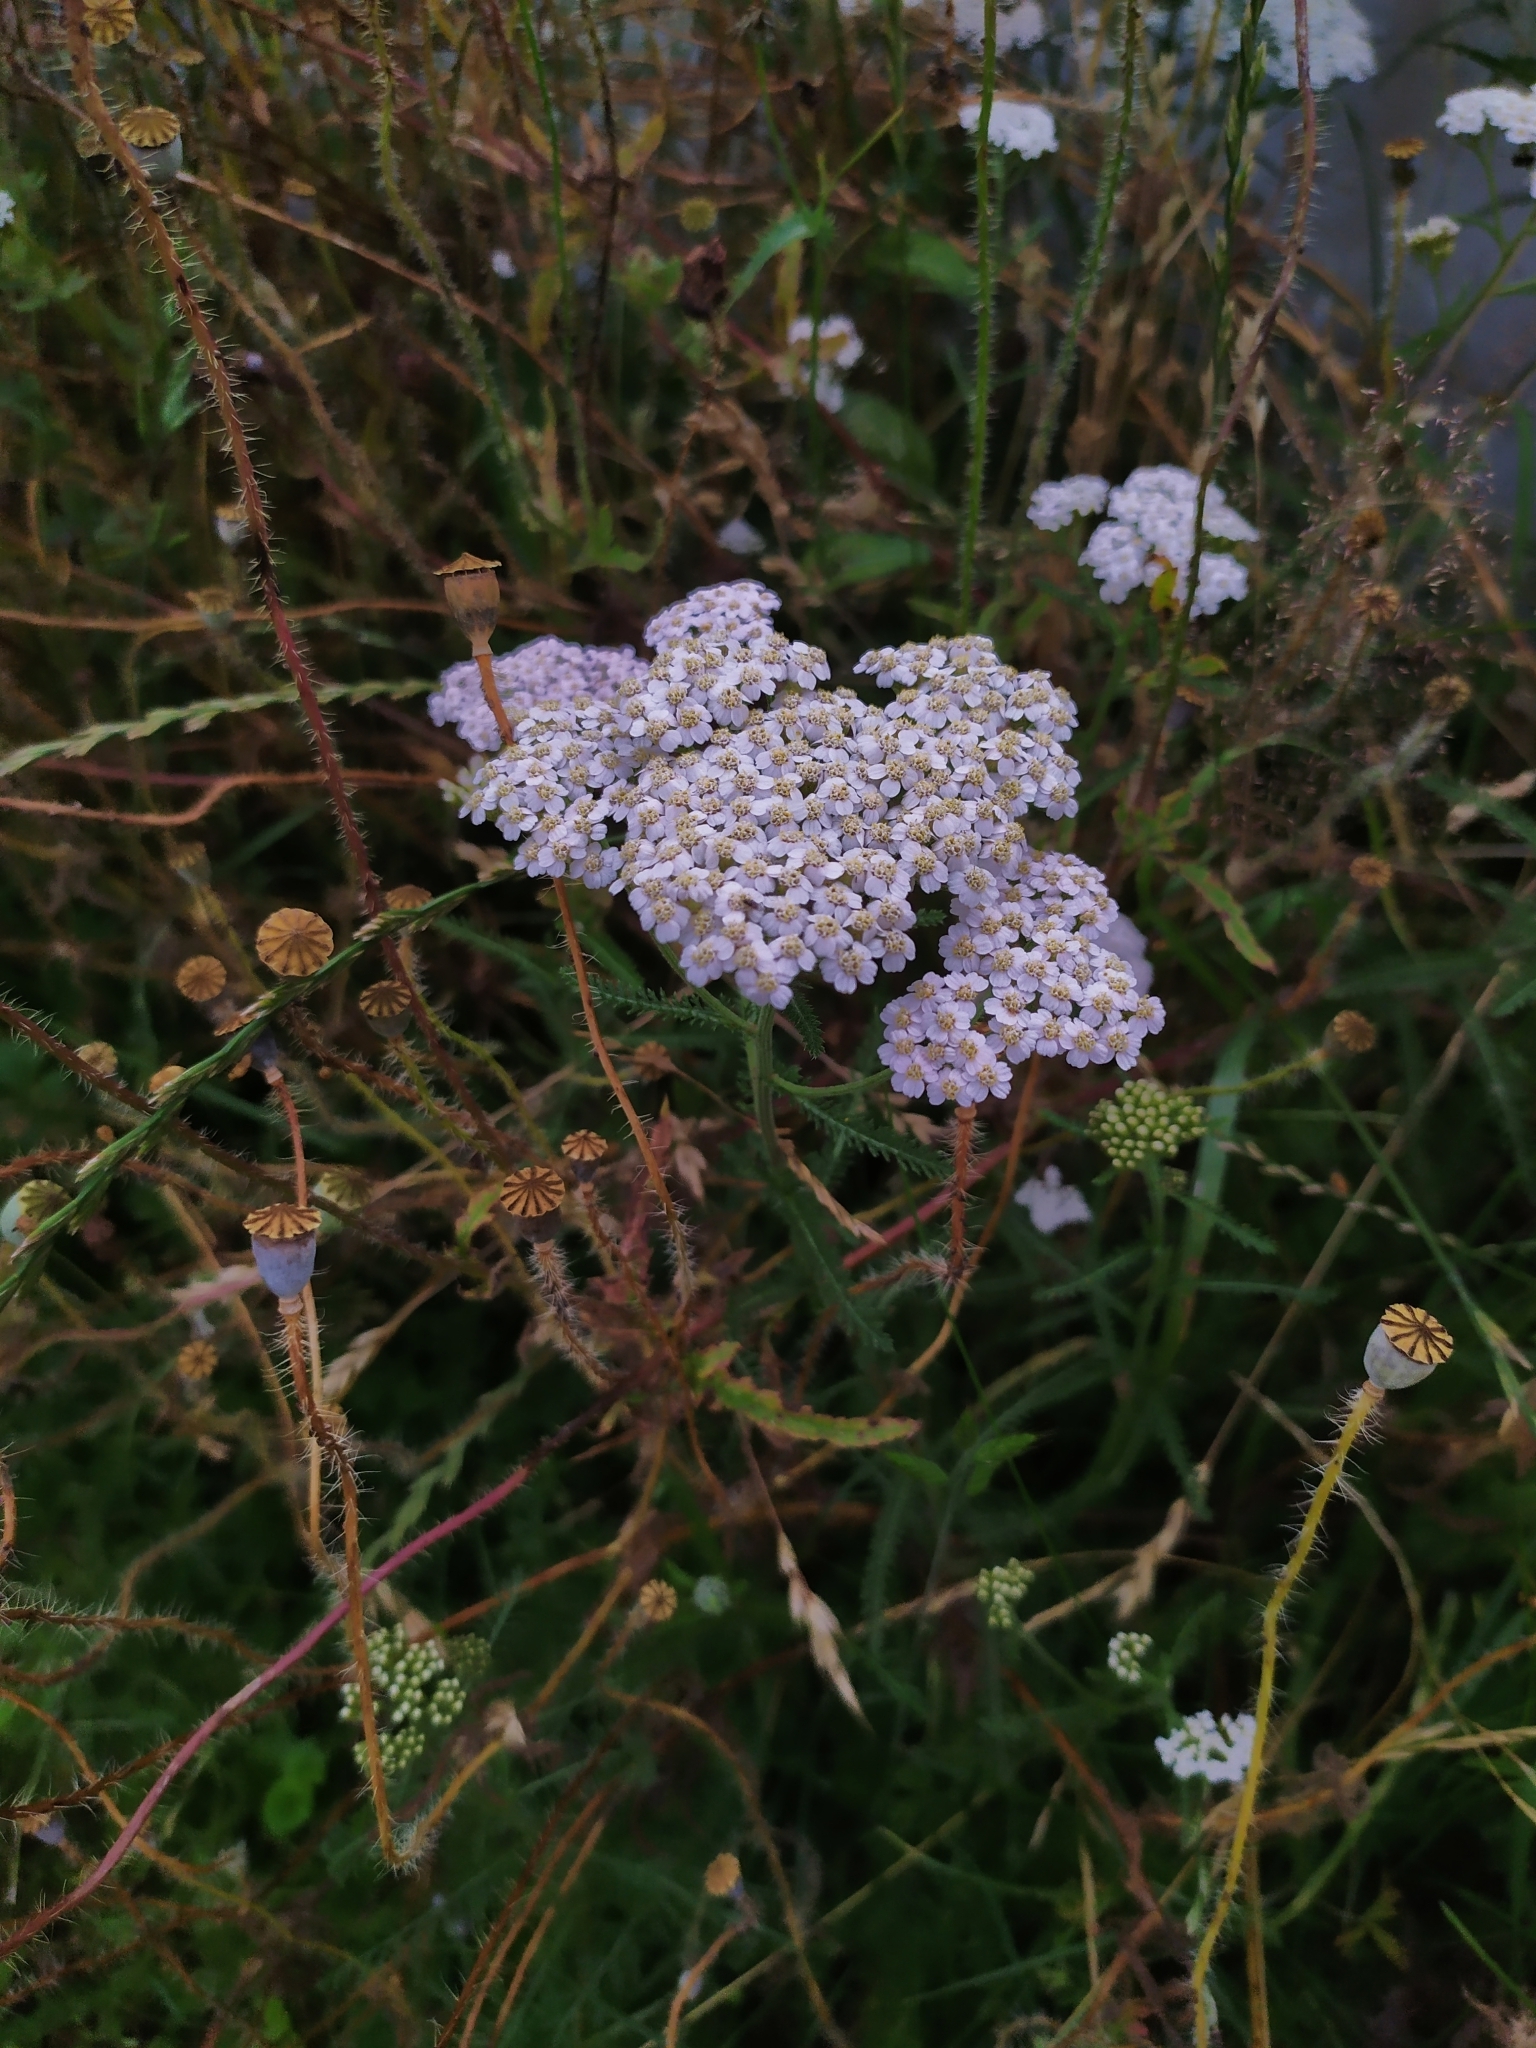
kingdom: Plantae
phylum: Tracheophyta
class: Magnoliopsida
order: Asterales
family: Asteraceae
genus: Achillea
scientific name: Achillea millefolium
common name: Yarrow
